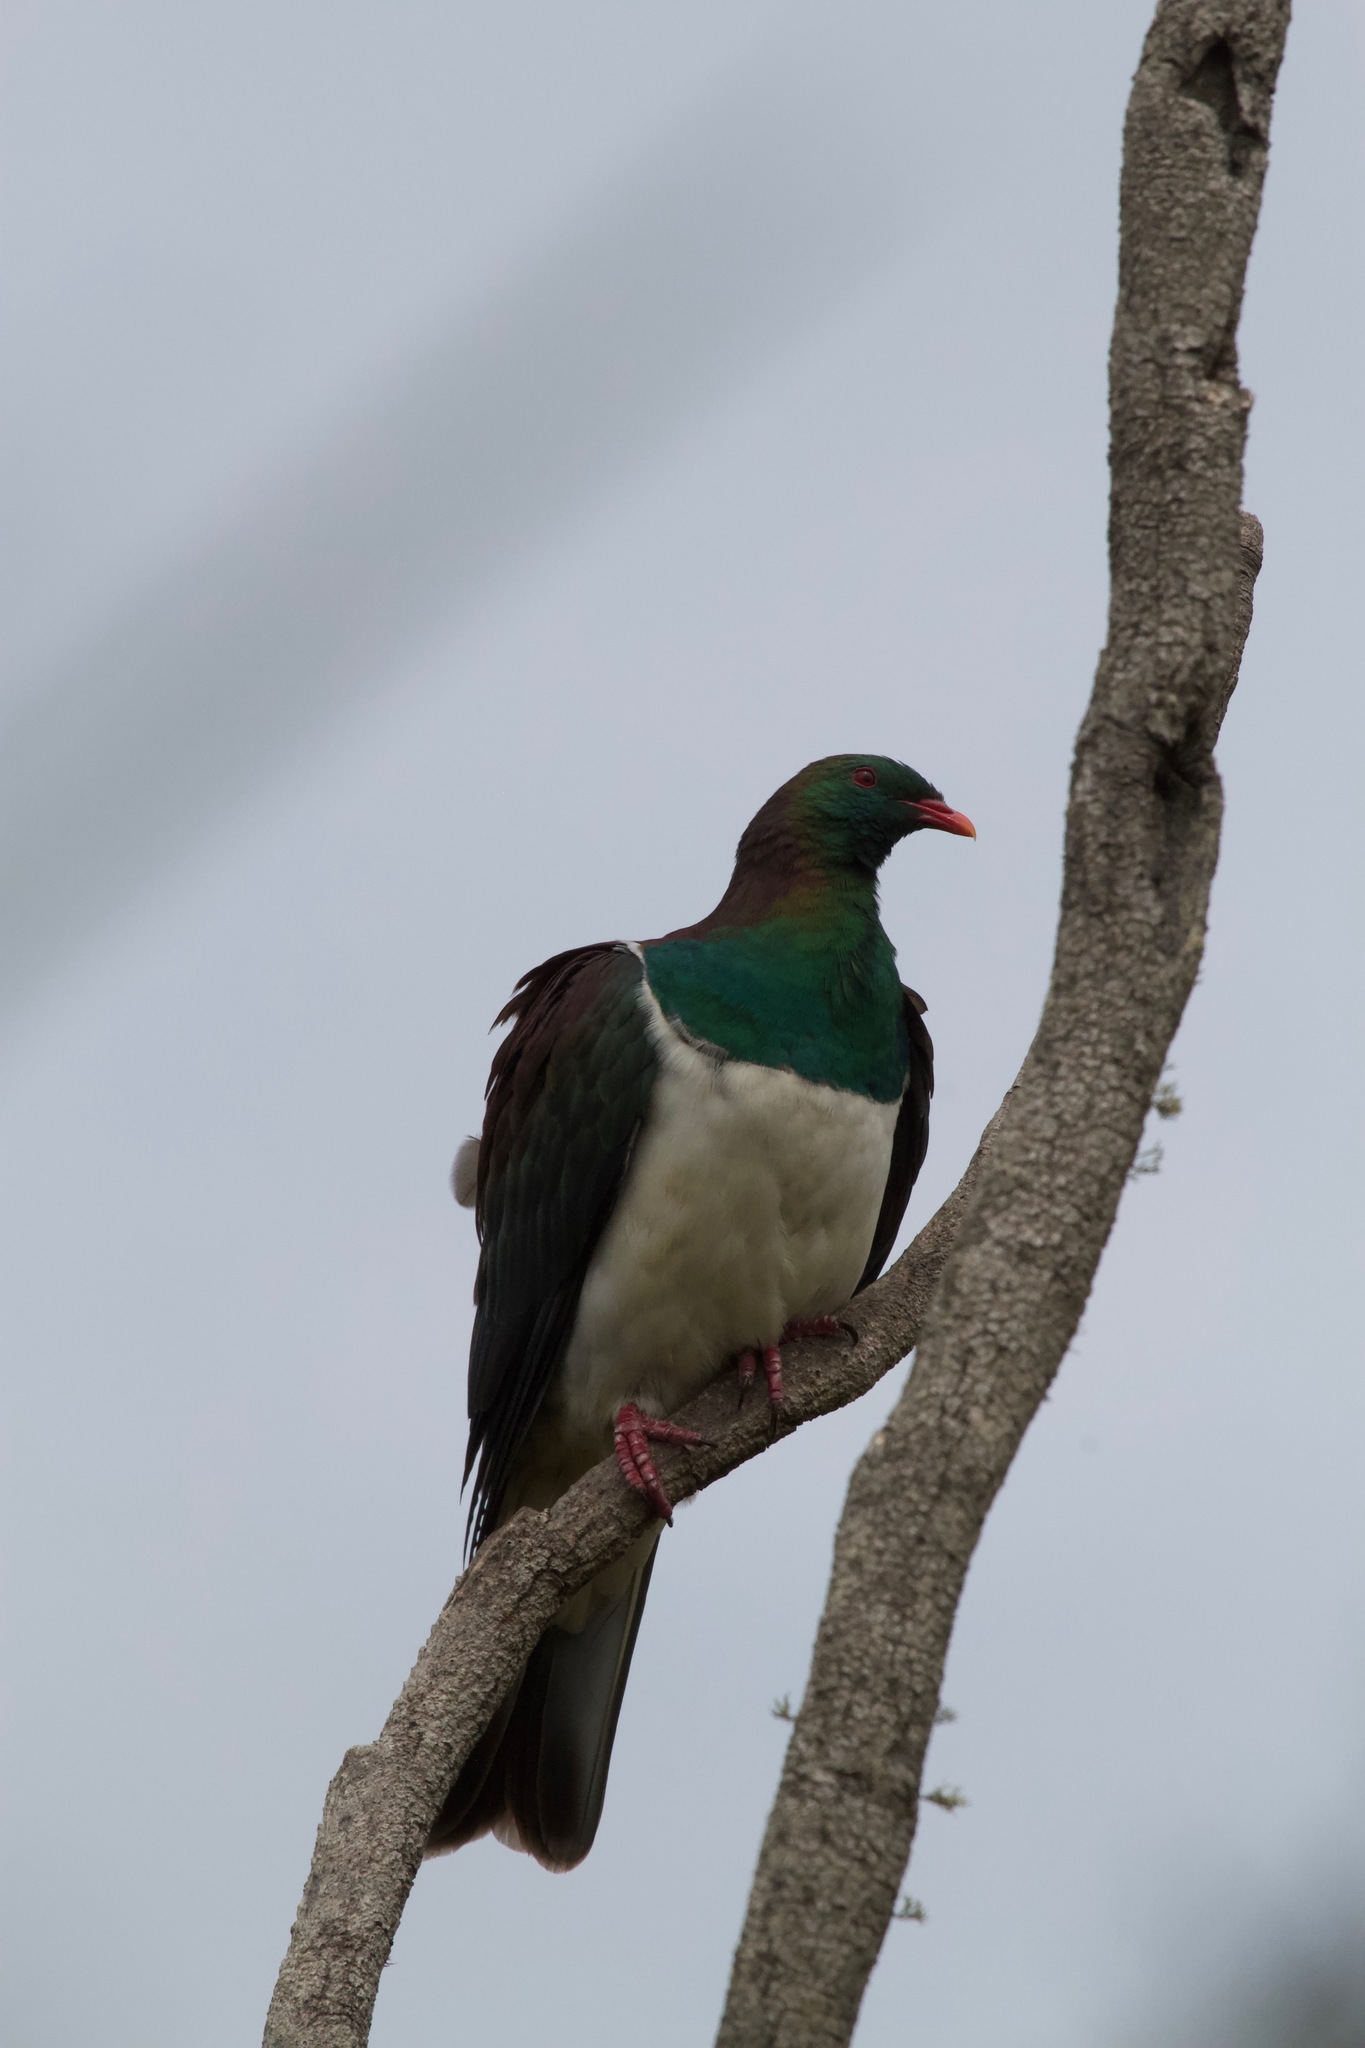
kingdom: Animalia
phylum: Chordata
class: Aves
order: Columbiformes
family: Columbidae
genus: Hemiphaga
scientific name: Hemiphaga novaeseelandiae
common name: New zealand pigeon
